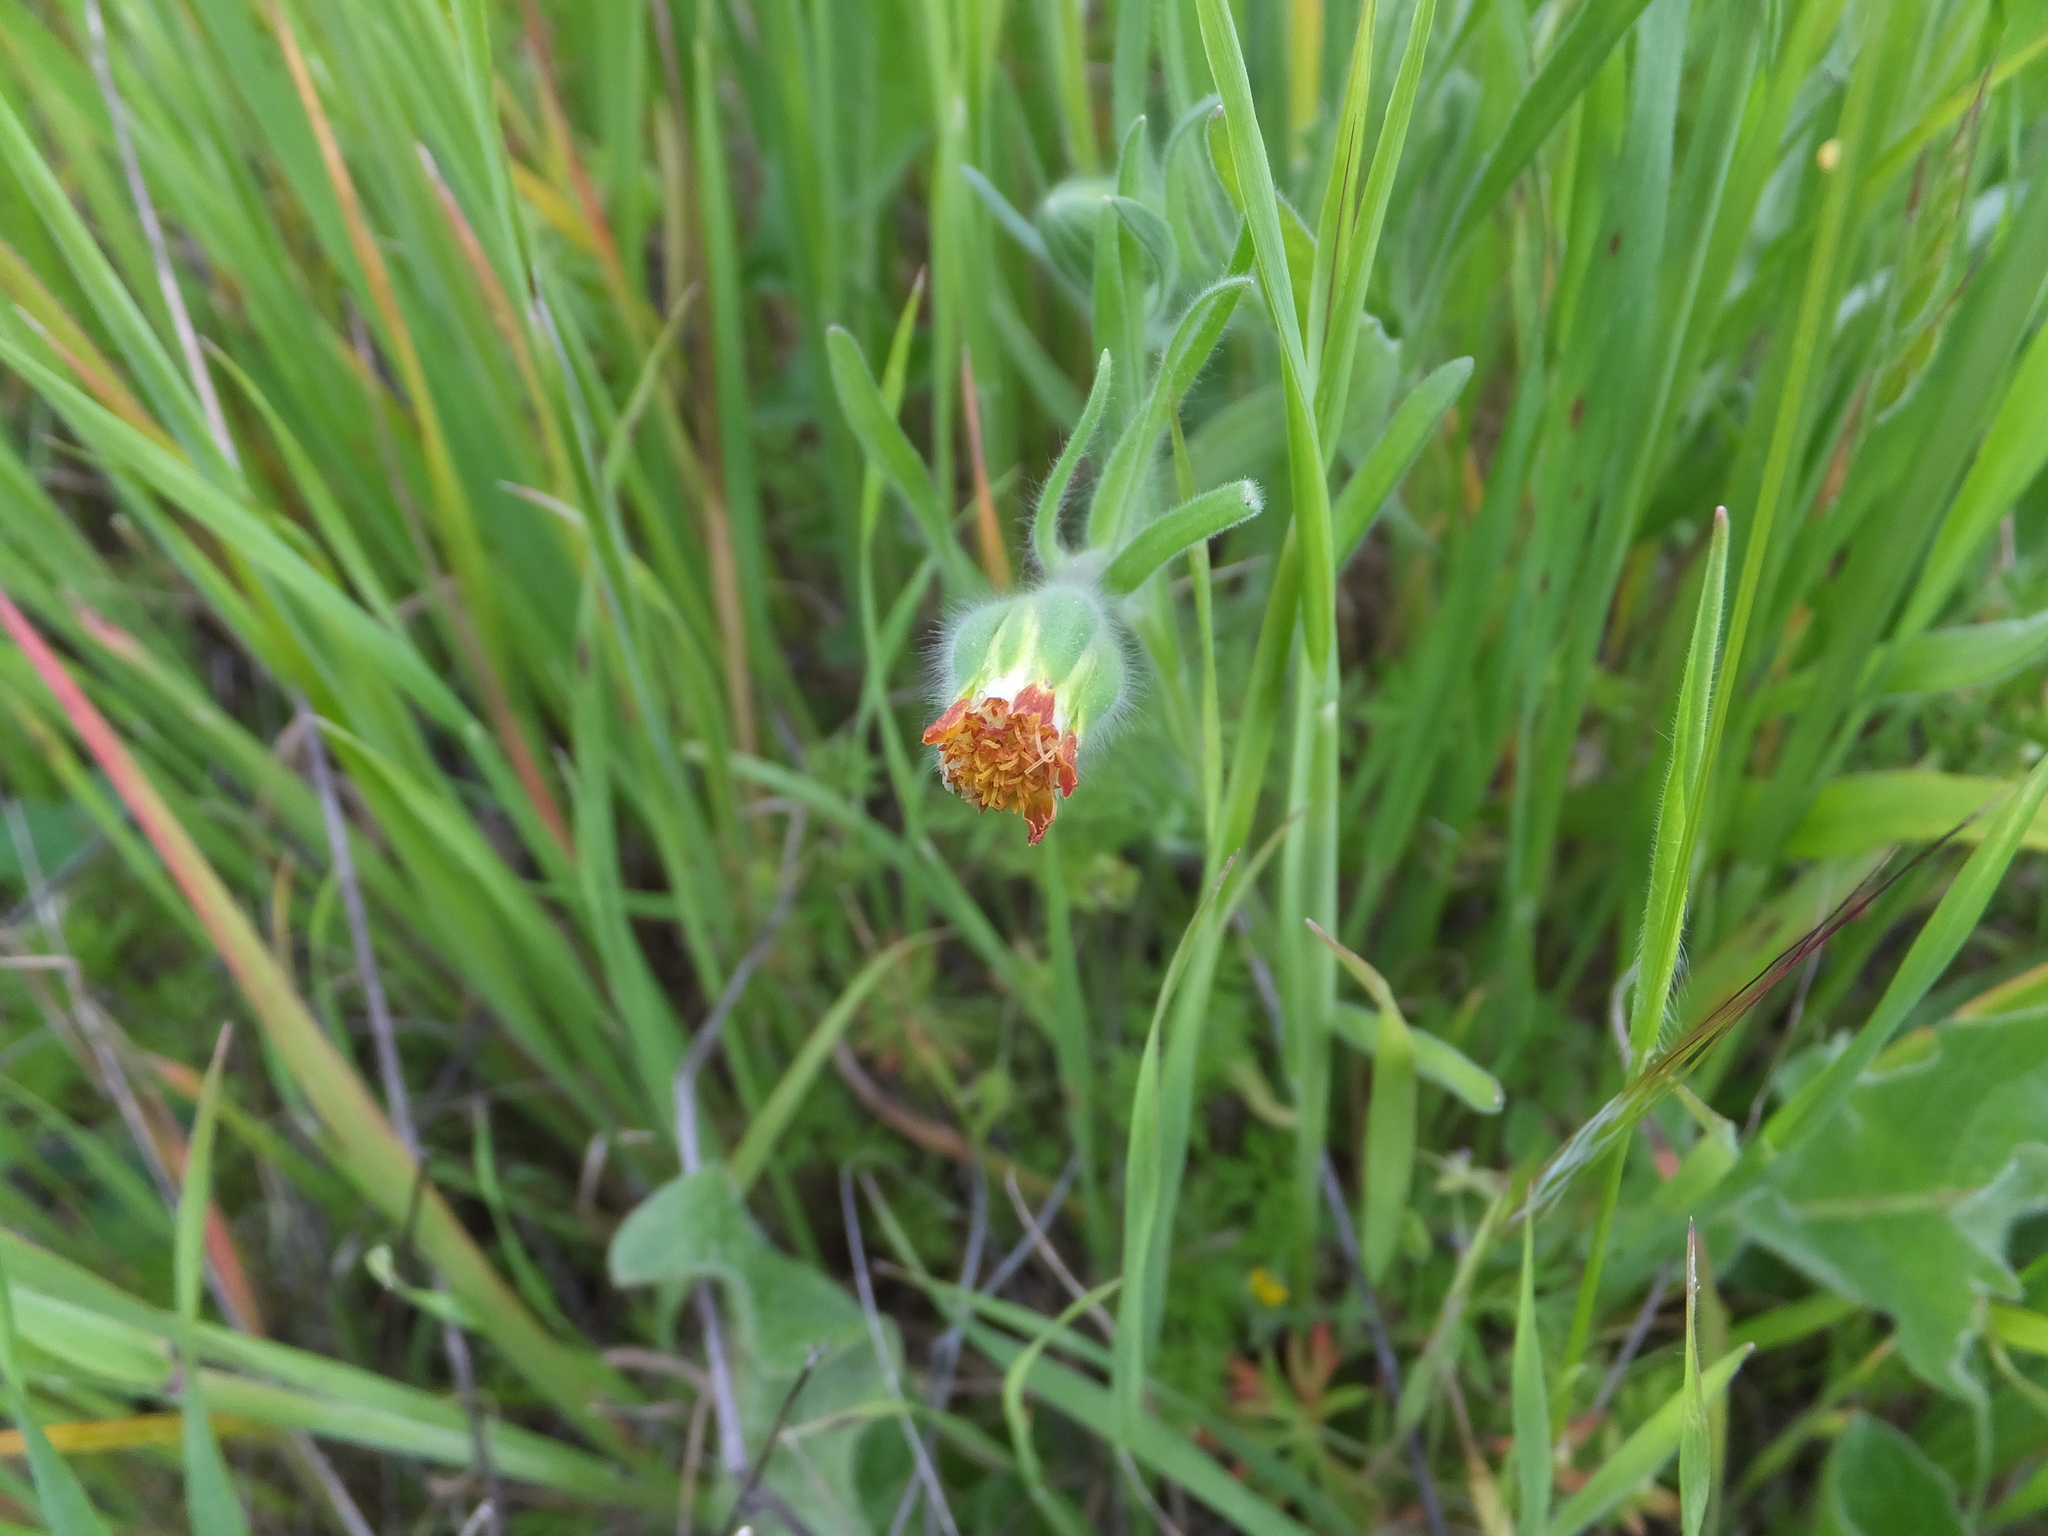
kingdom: Plantae
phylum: Tracheophyta
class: Magnoliopsida
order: Asterales
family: Asteraceae
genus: Achyrachaena
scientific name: Achyrachaena mollis
